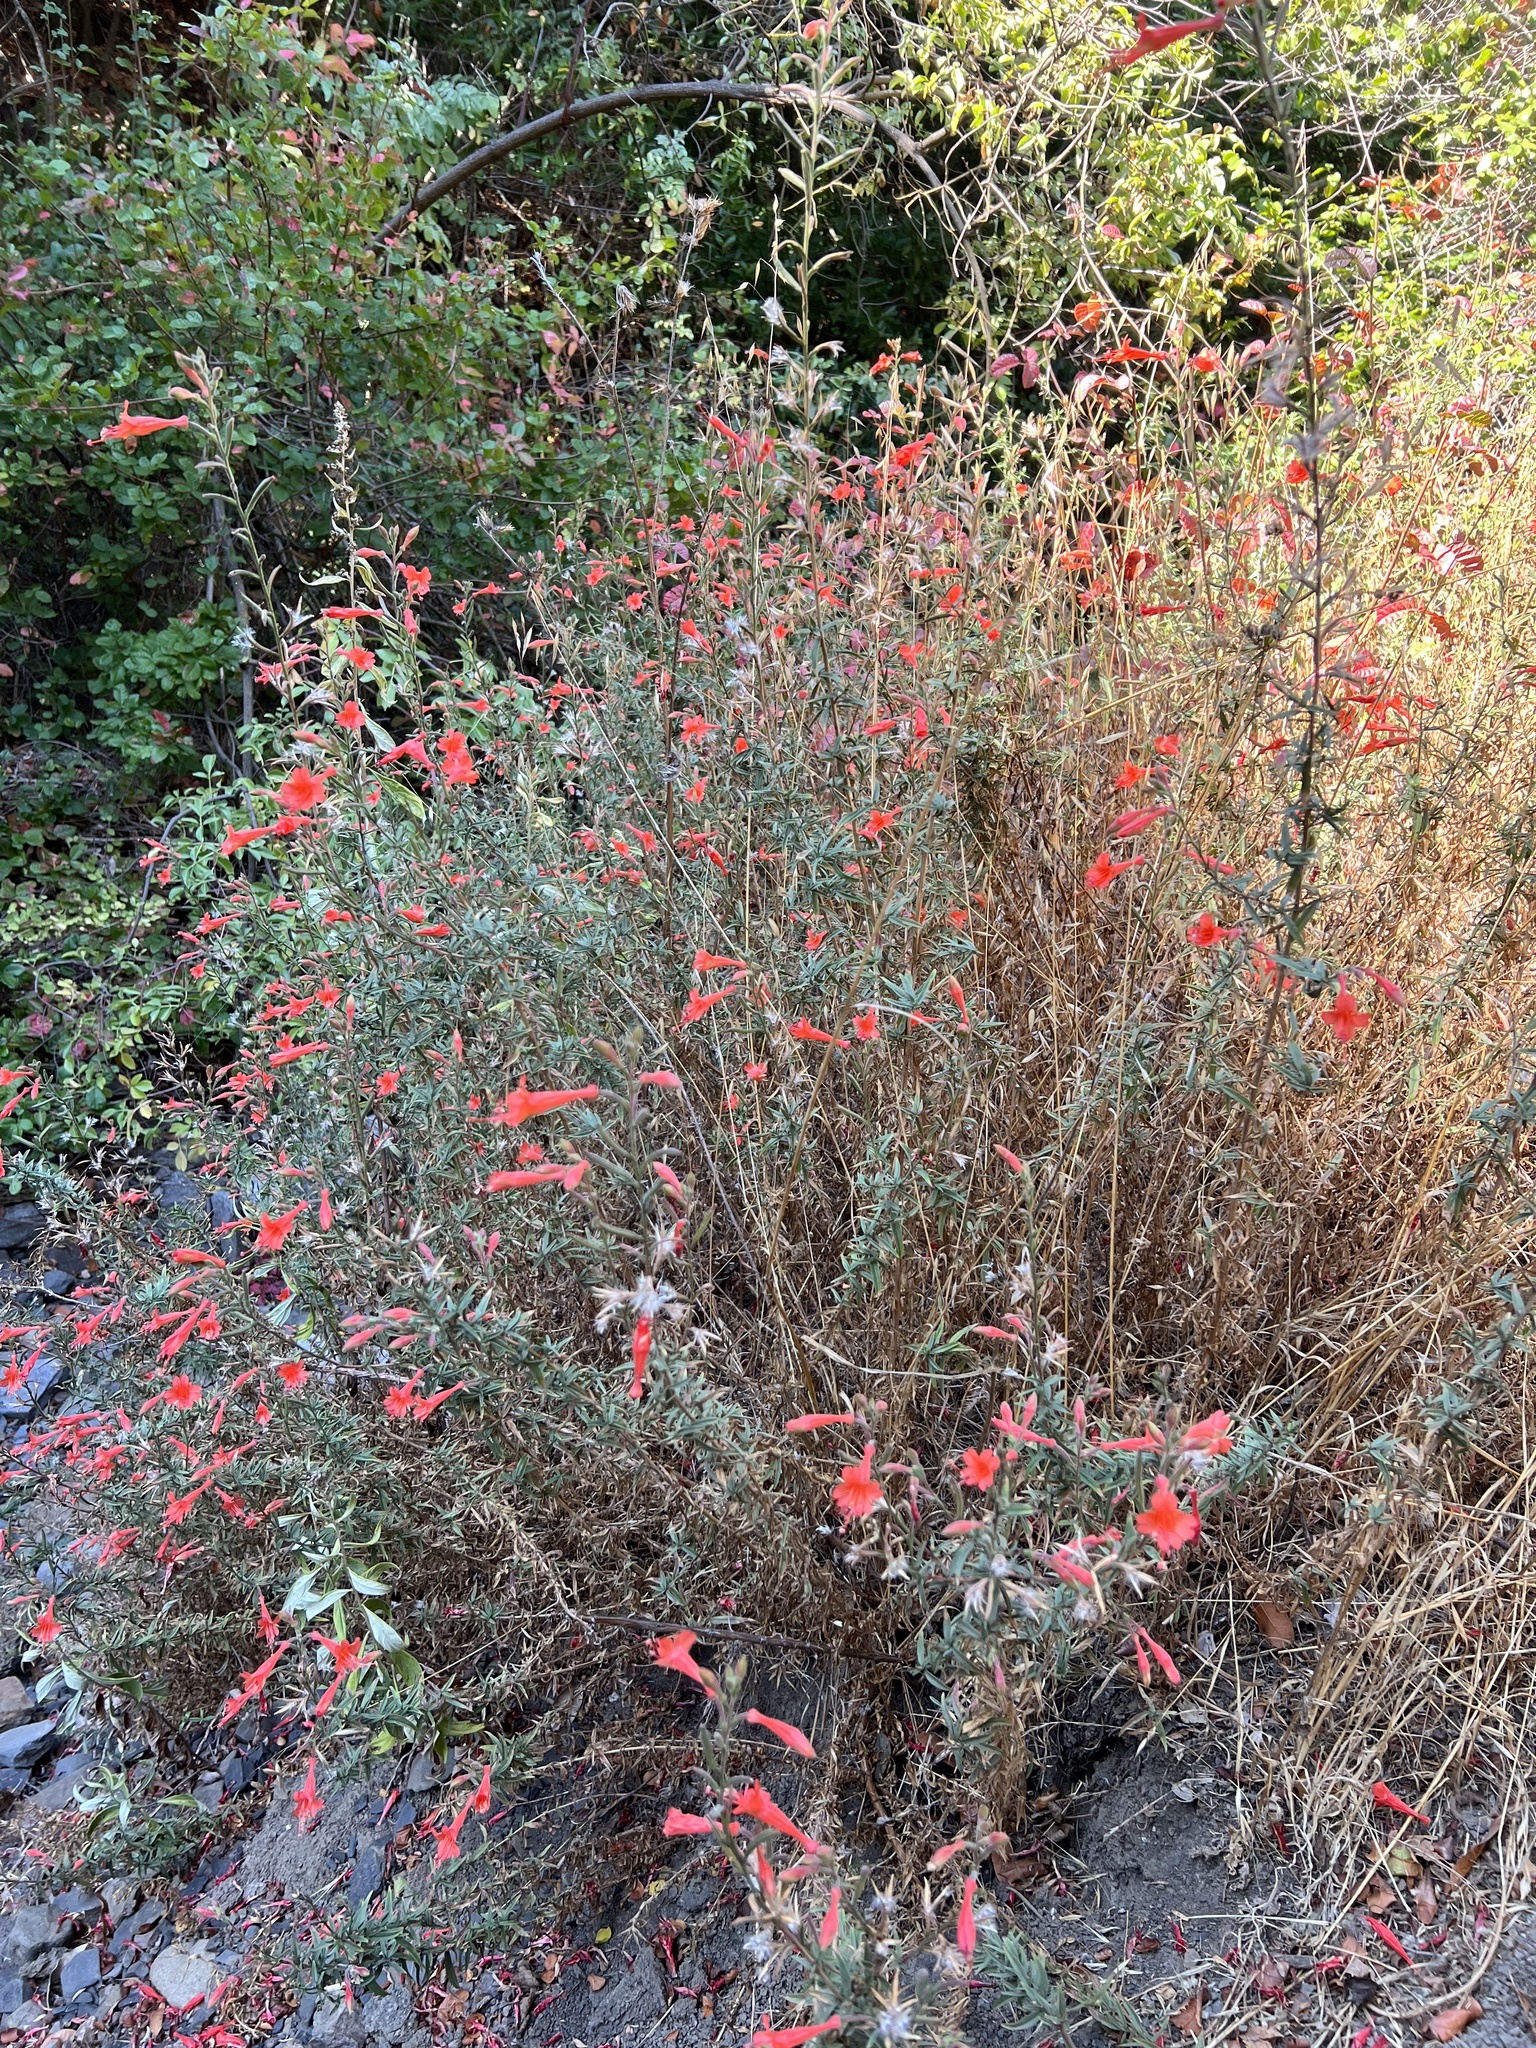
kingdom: Plantae
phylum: Tracheophyta
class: Magnoliopsida
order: Myrtales
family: Onagraceae
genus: Epilobium
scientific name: Epilobium canum
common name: California-fuchsia
